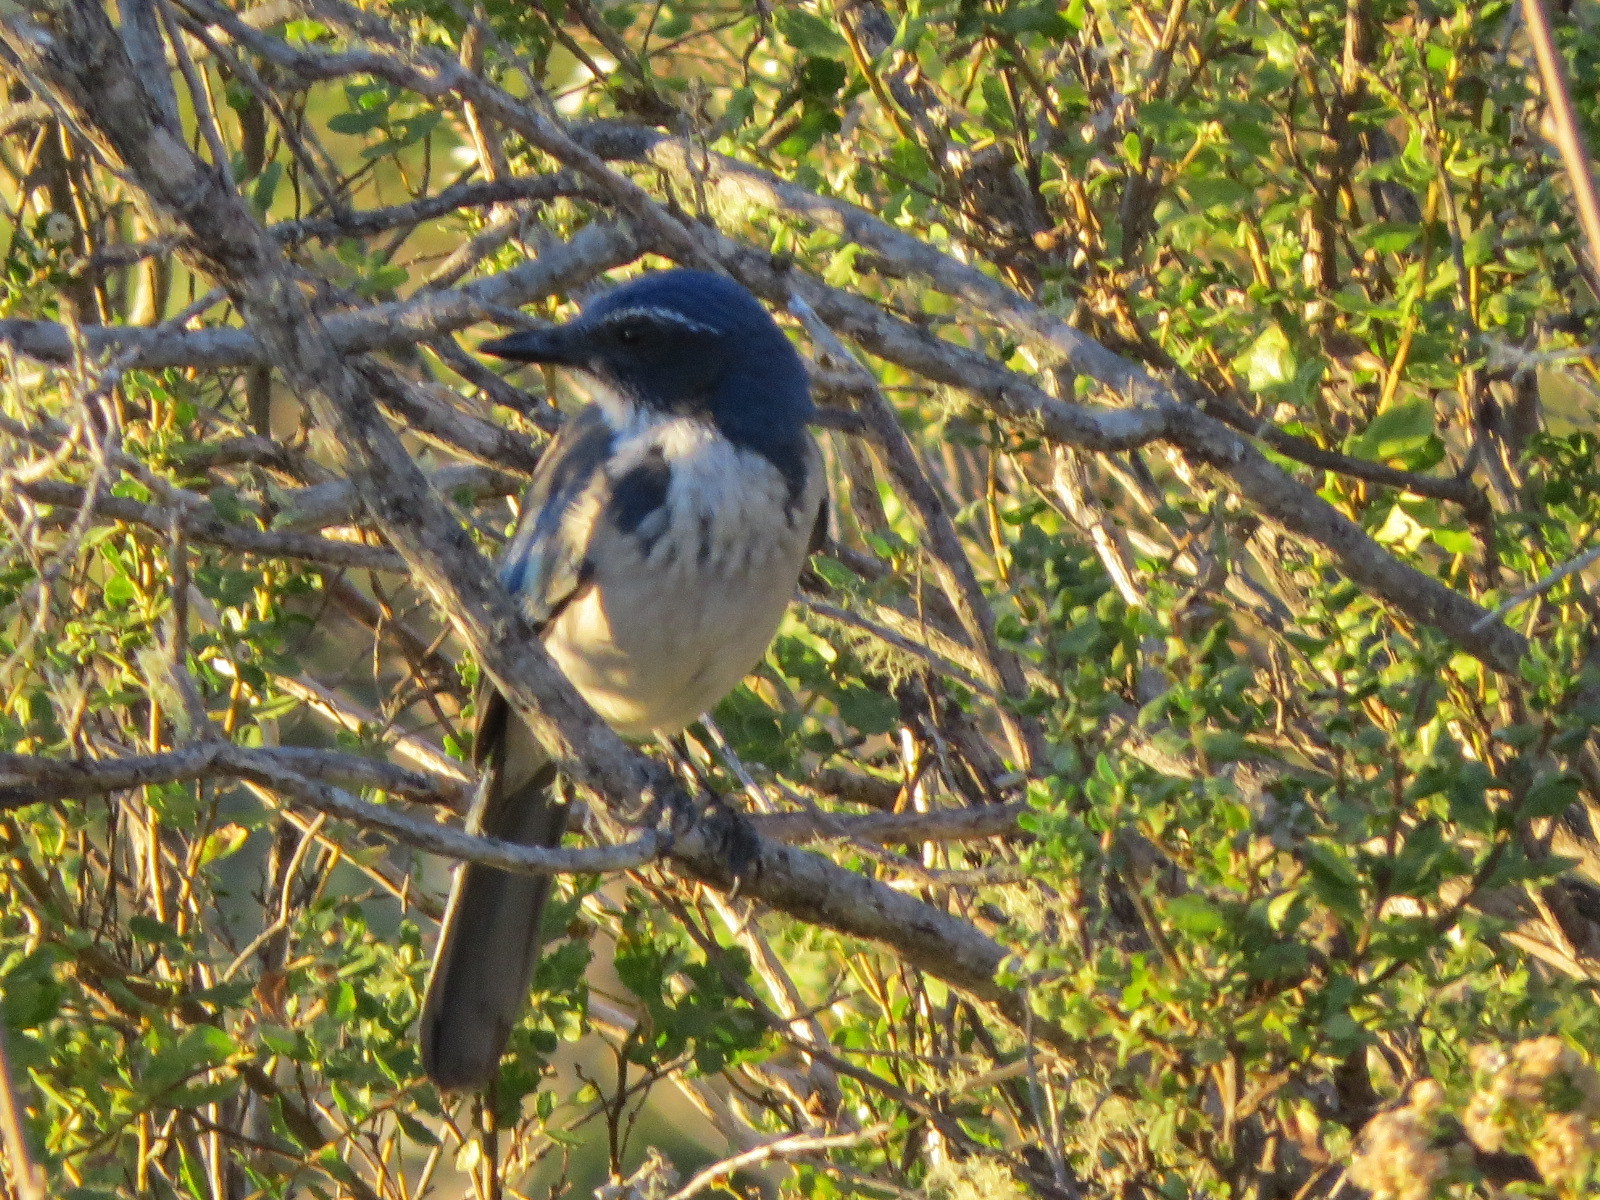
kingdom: Animalia
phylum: Chordata
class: Aves
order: Passeriformes
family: Corvidae
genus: Aphelocoma
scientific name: Aphelocoma californica
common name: California scrub-jay
